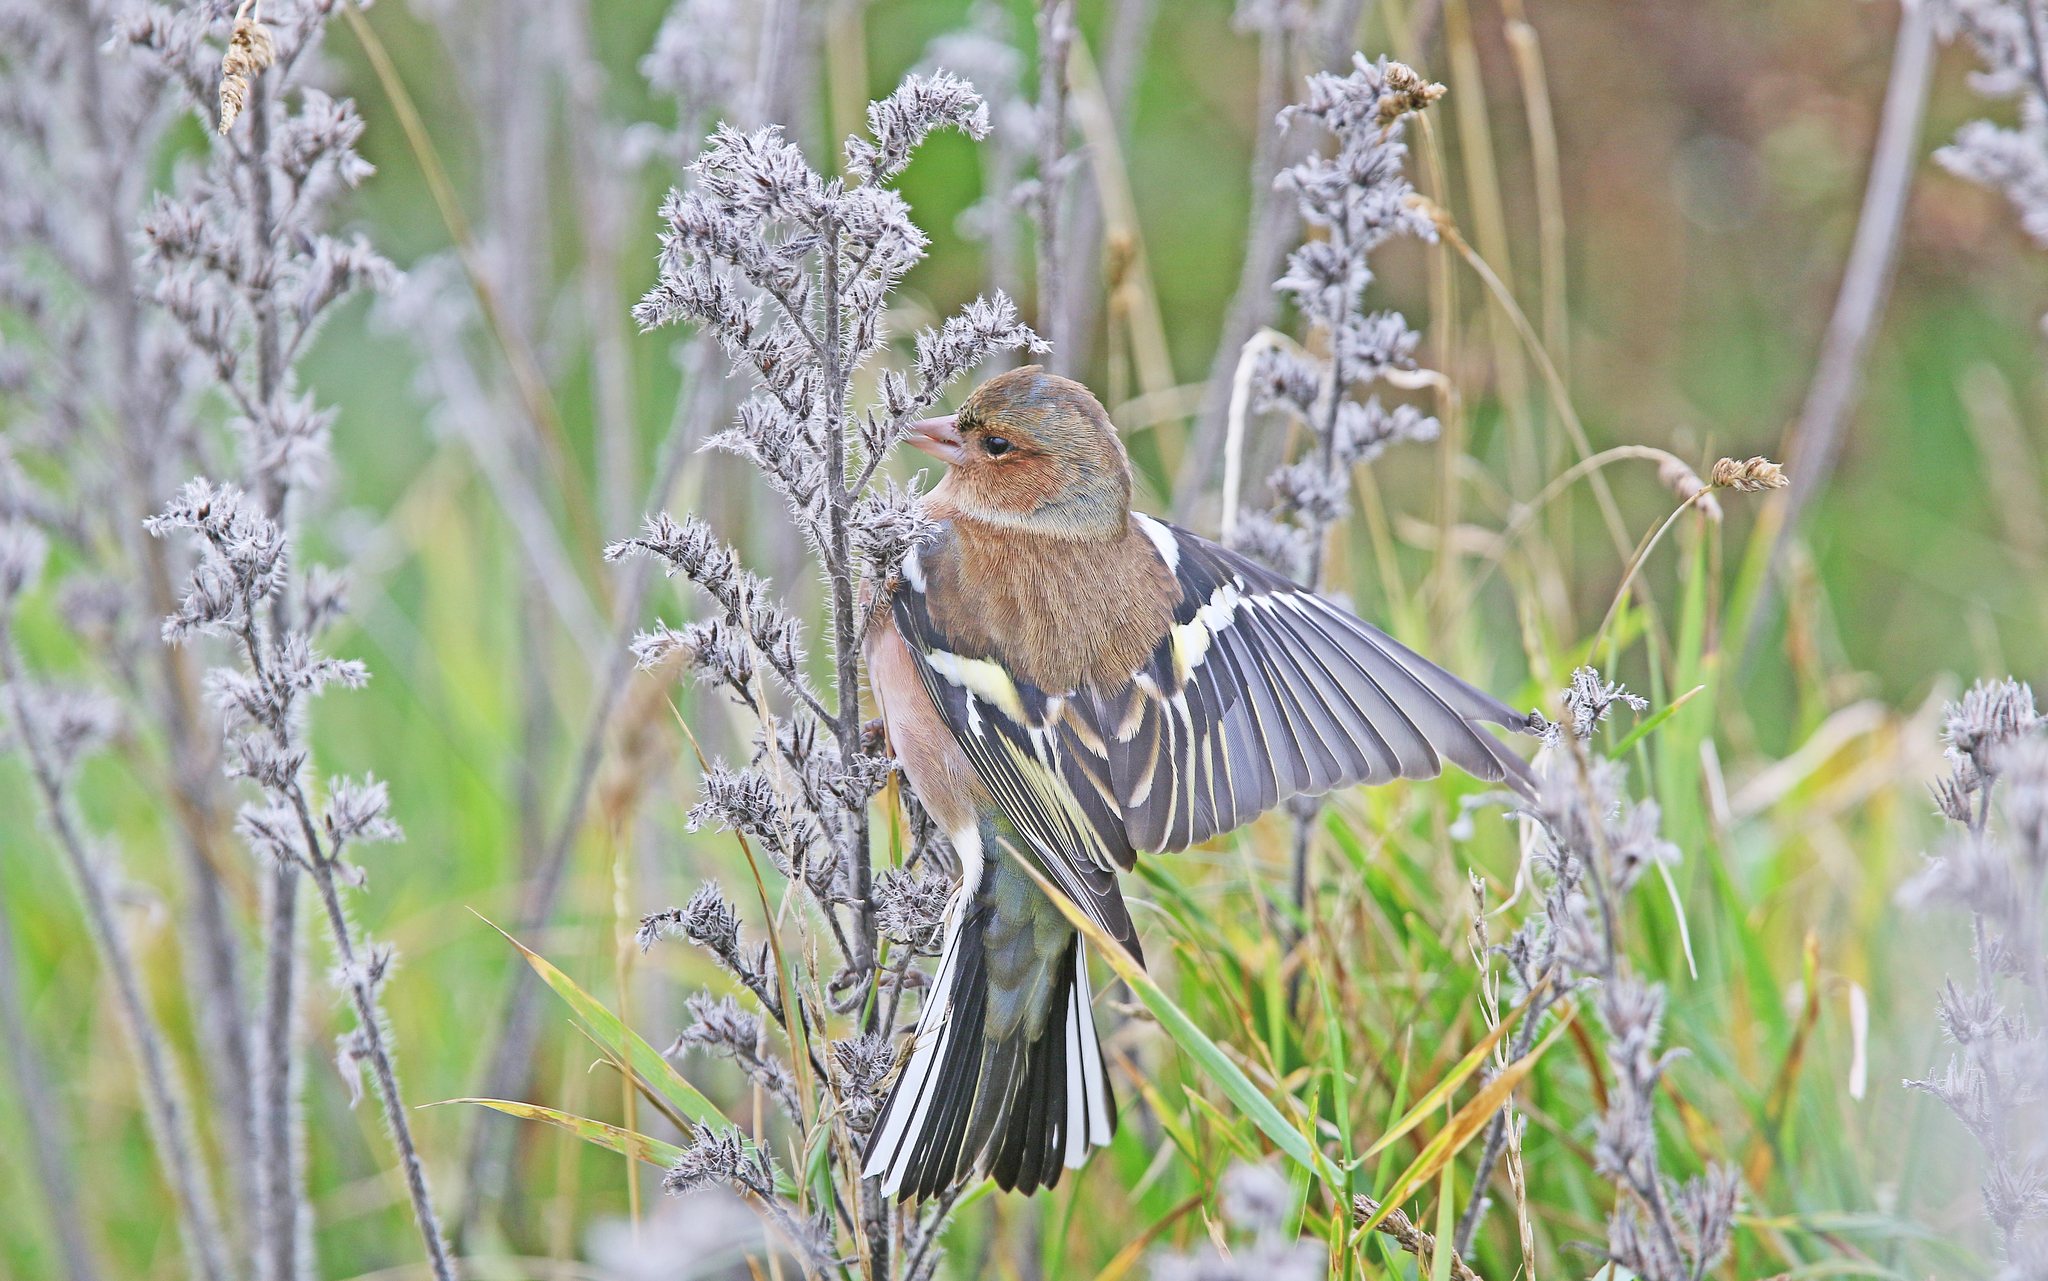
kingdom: Animalia
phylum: Chordata
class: Aves
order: Passeriformes
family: Fringillidae
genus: Fringilla
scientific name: Fringilla coelebs
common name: Common chaffinch
